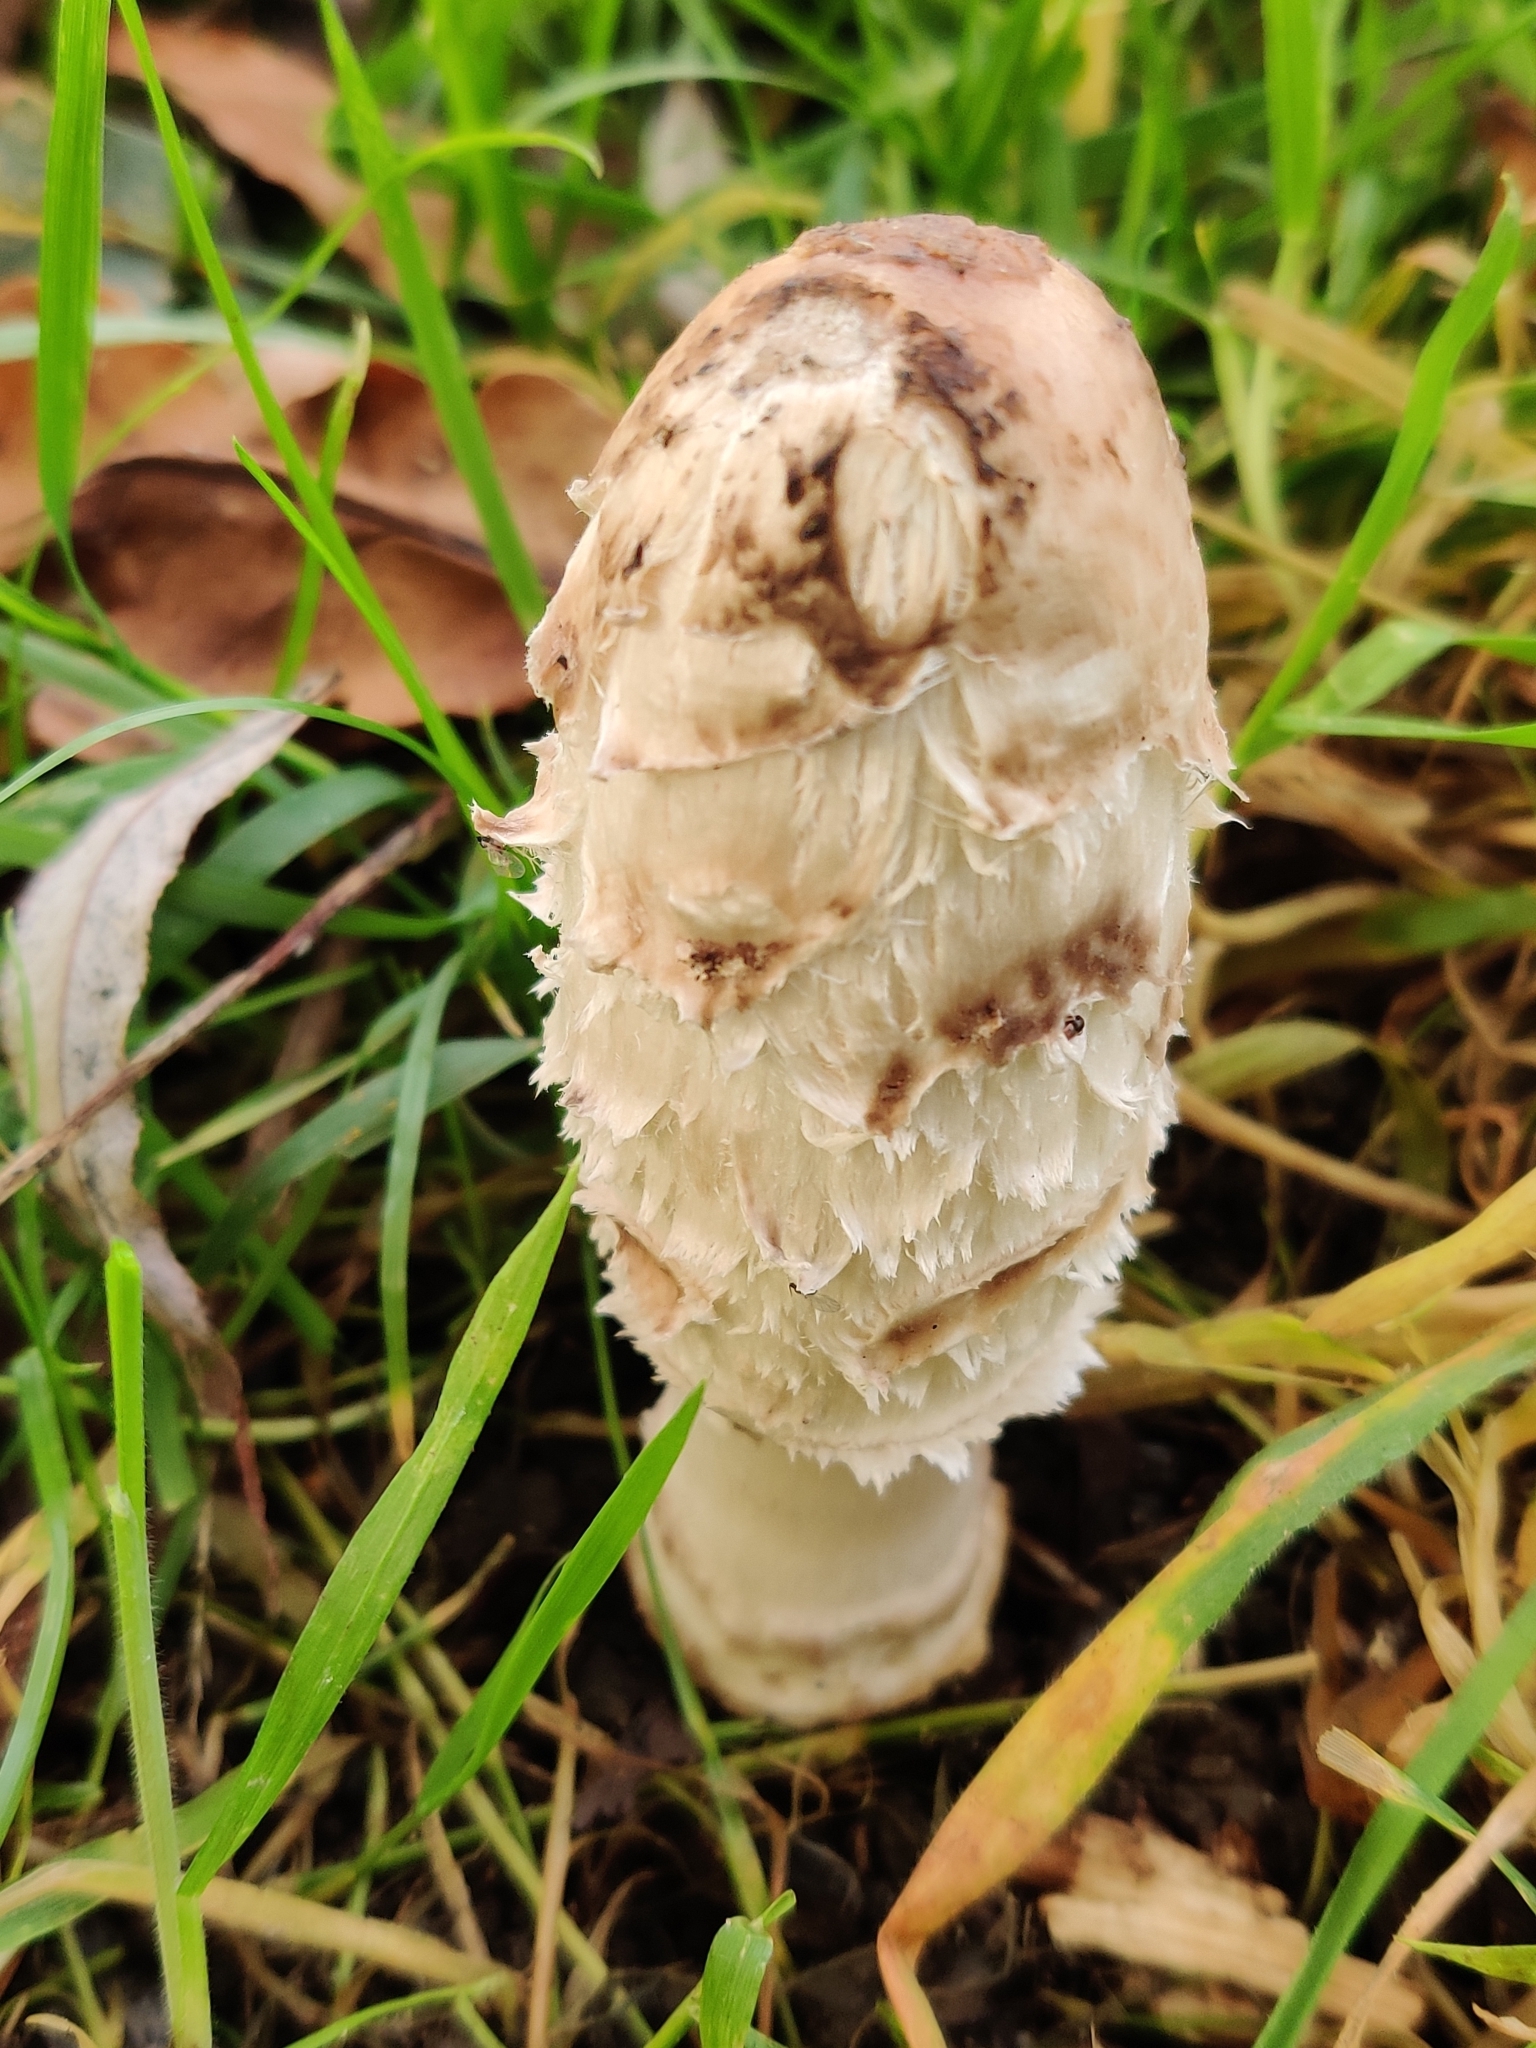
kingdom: Fungi
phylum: Basidiomycota
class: Agaricomycetes
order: Agaricales
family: Agaricaceae
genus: Coprinus
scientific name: Coprinus comatus
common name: Lawyer's wig
